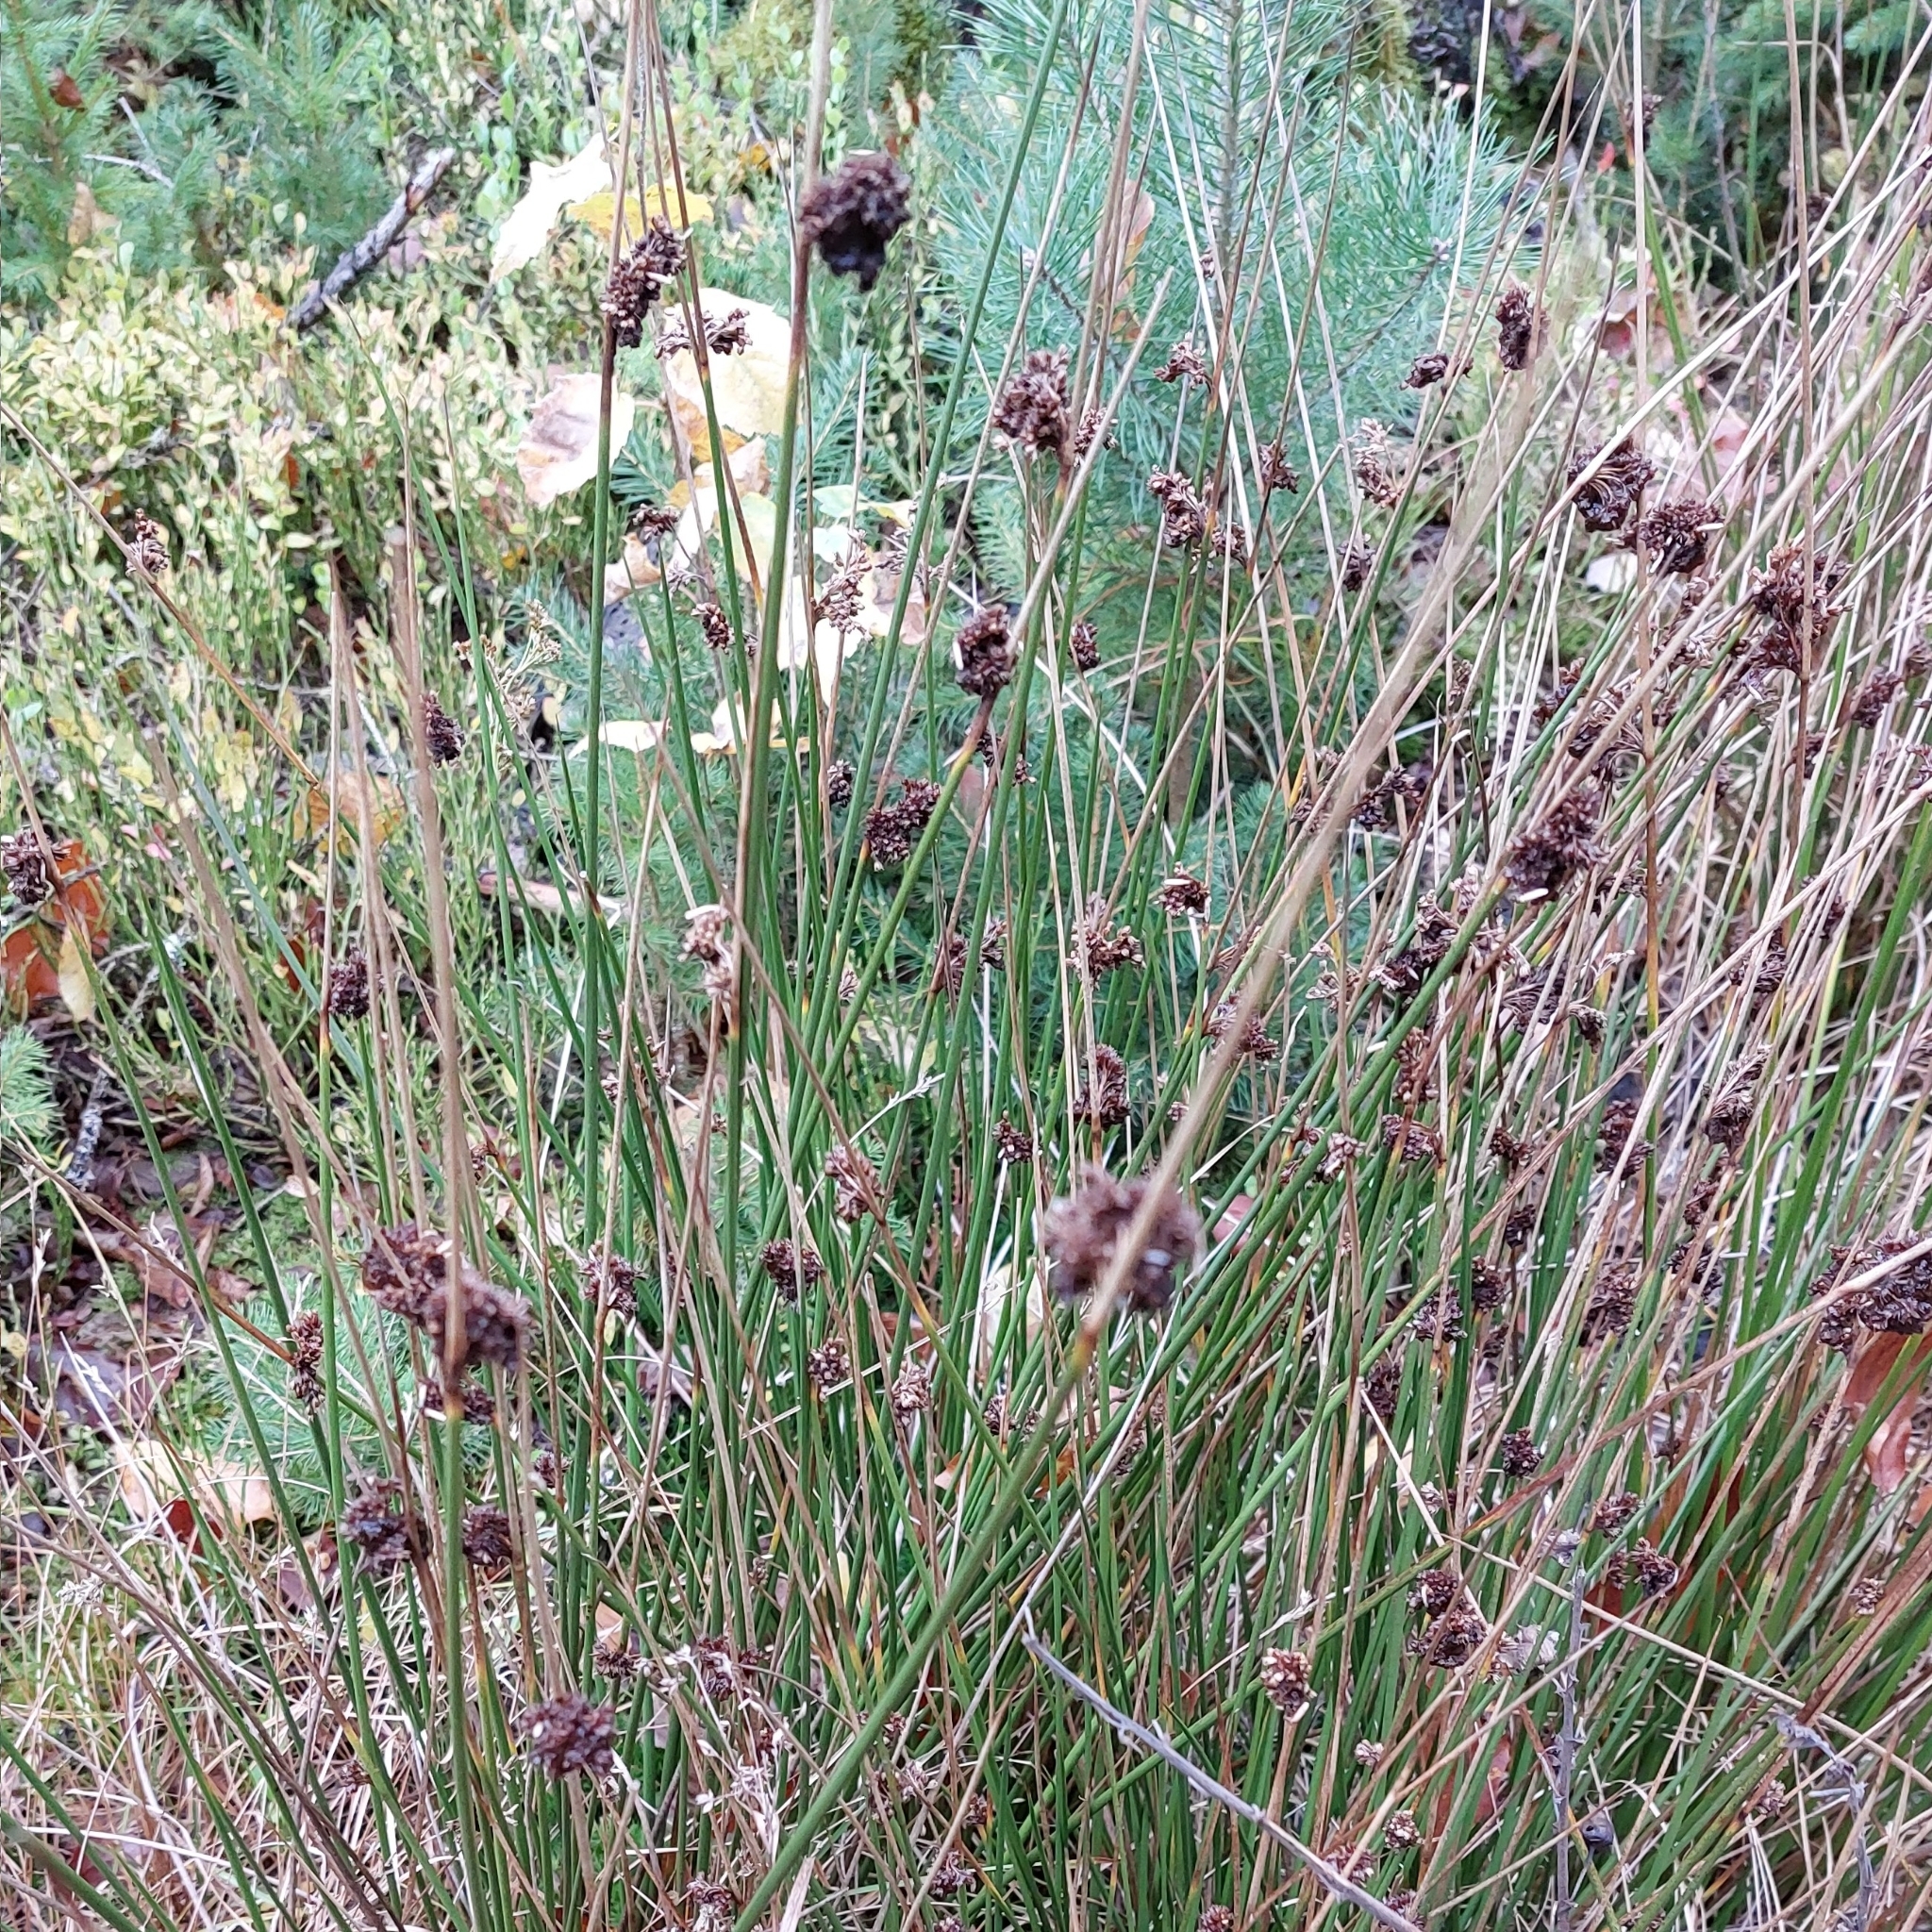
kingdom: Plantae
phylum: Tracheophyta
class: Liliopsida
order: Poales
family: Juncaceae
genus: Juncus
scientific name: Juncus effusus
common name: Soft rush
